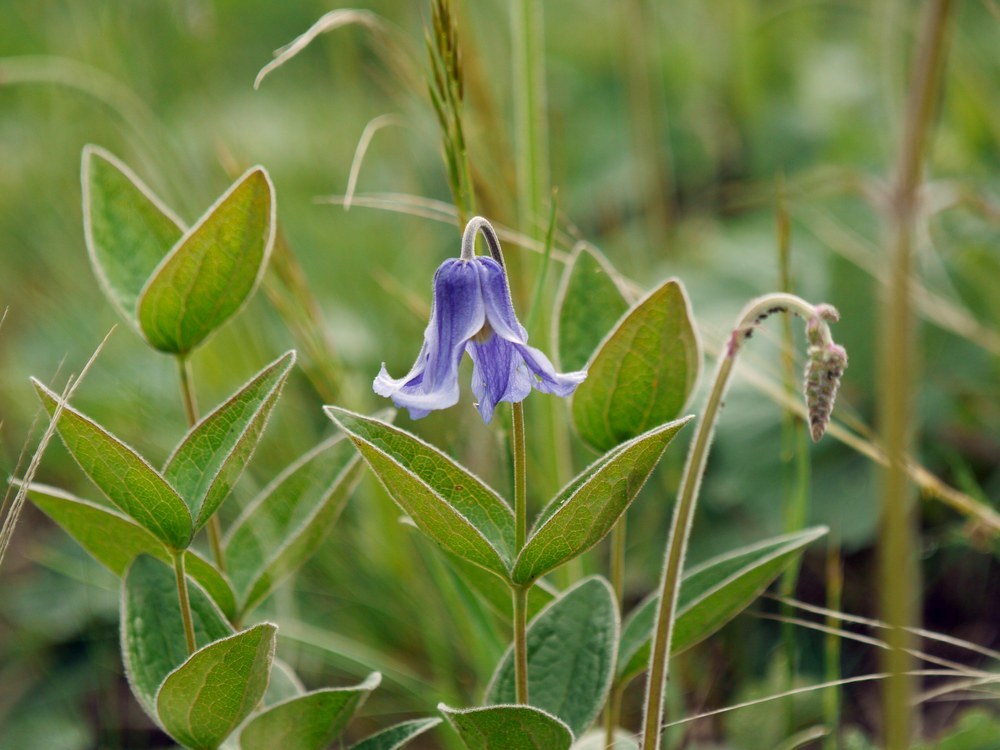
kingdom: Plantae
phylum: Tracheophyta
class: Magnoliopsida
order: Ranunculales
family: Ranunculaceae
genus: Clematis
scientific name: Clematis integrifolia
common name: Solitary clematis
